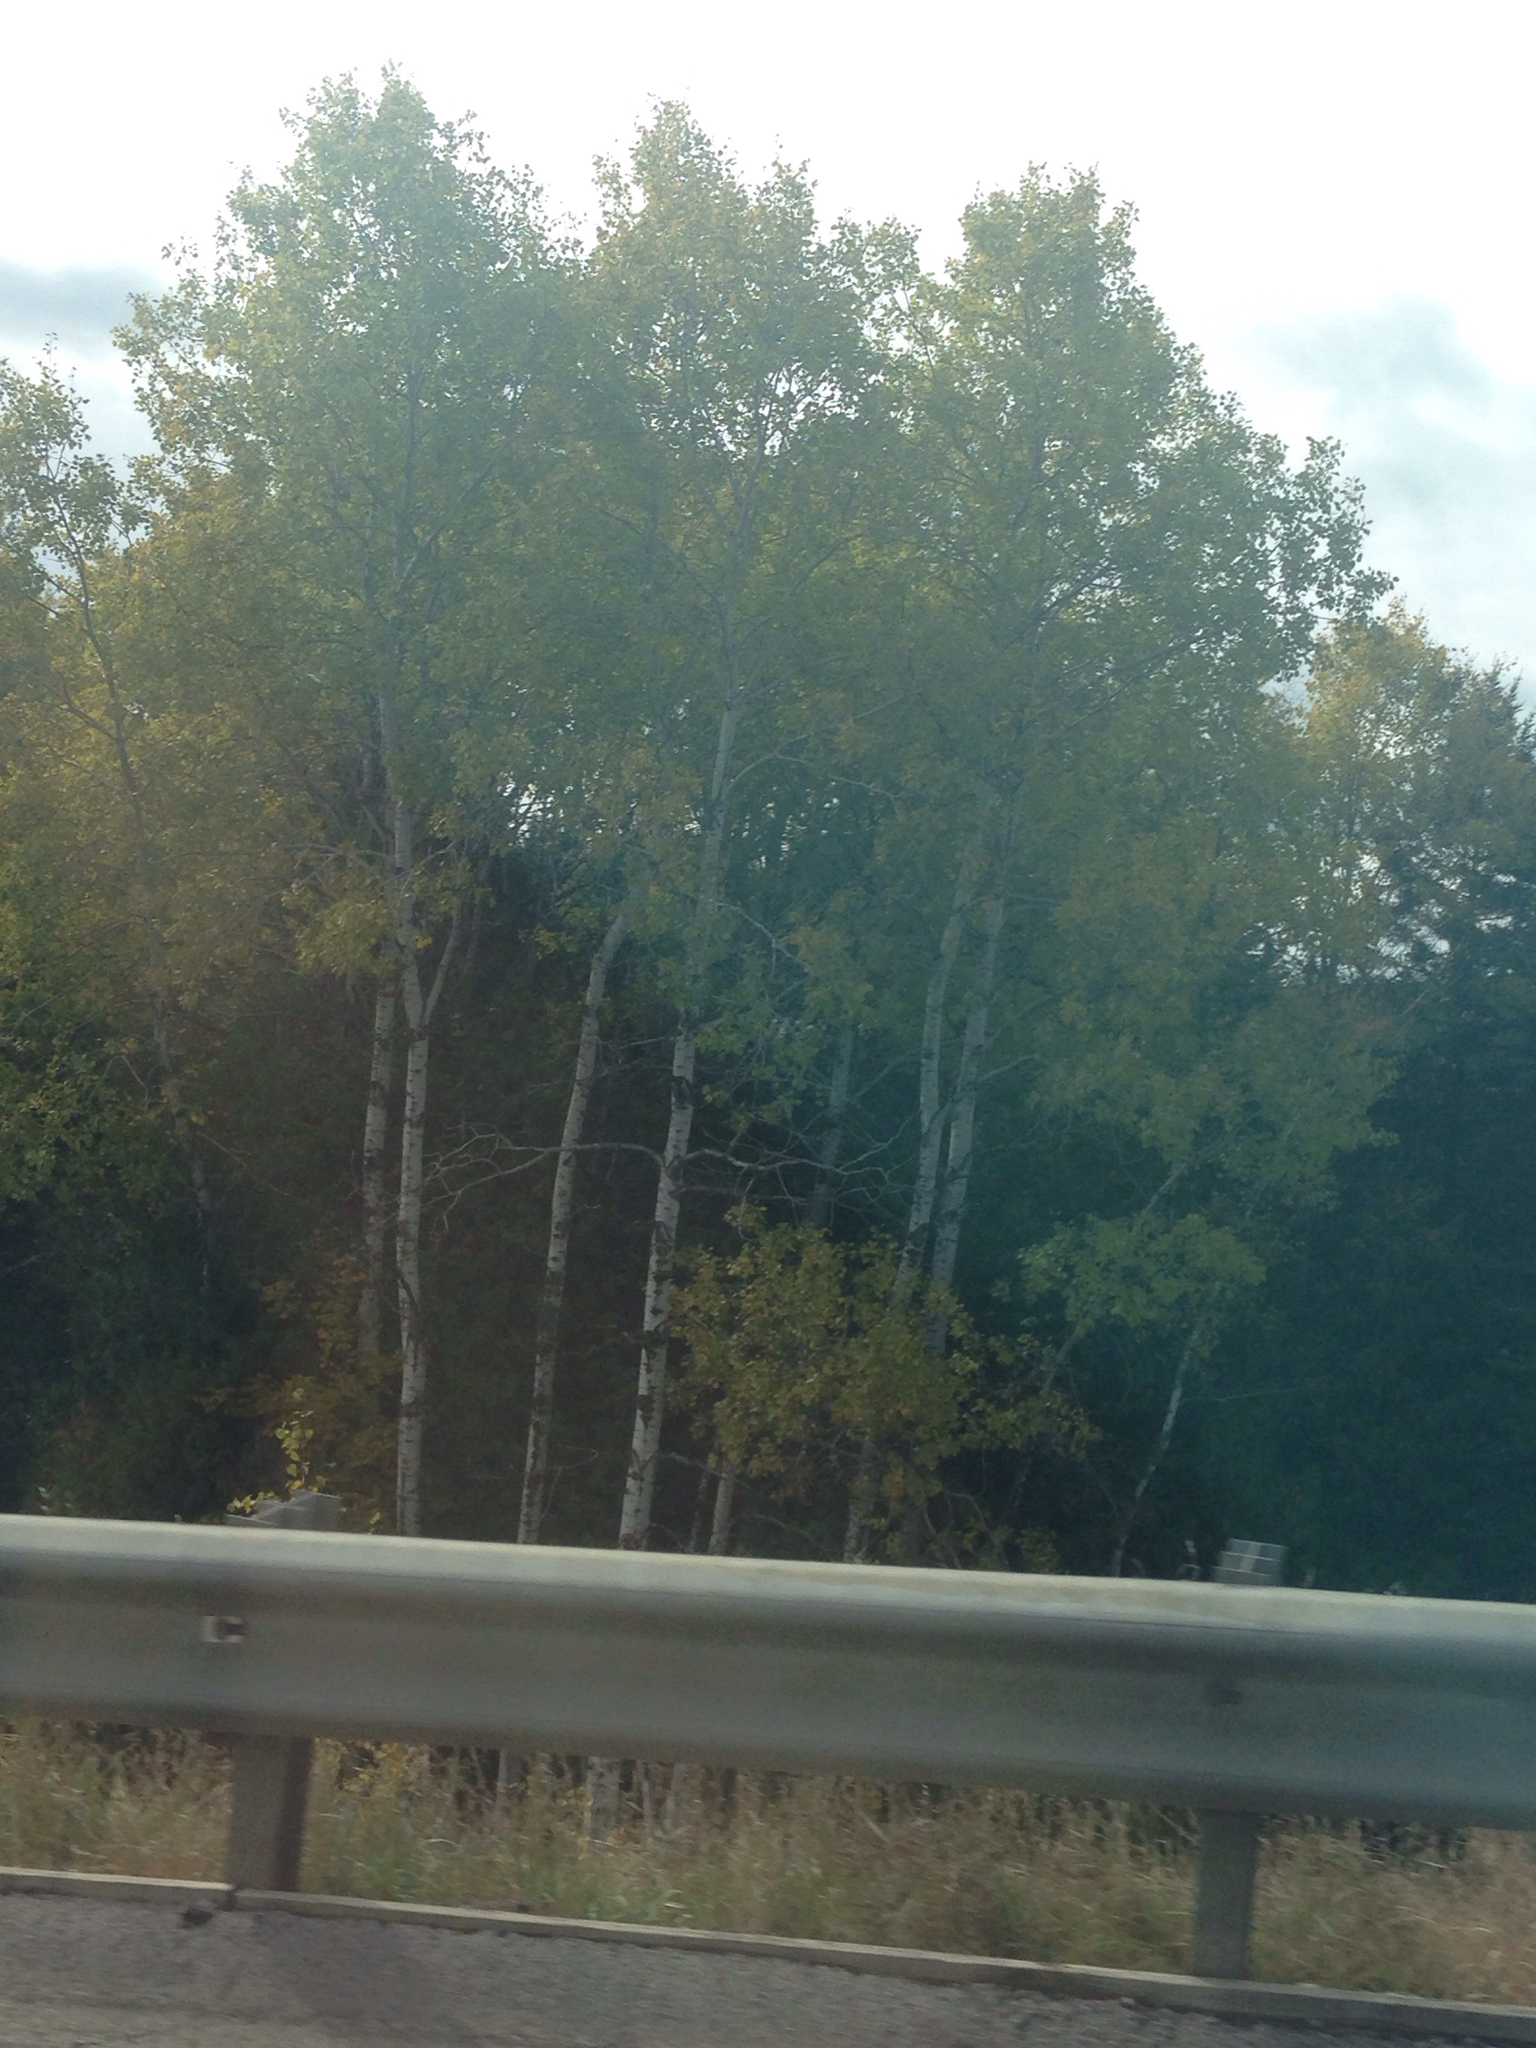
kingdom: Plantae
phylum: Tracheophyta
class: Magnoliopsida
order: Malpighiales
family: Salicaceae
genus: Populus
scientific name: Populus tremuloides
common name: Quaking aspen
